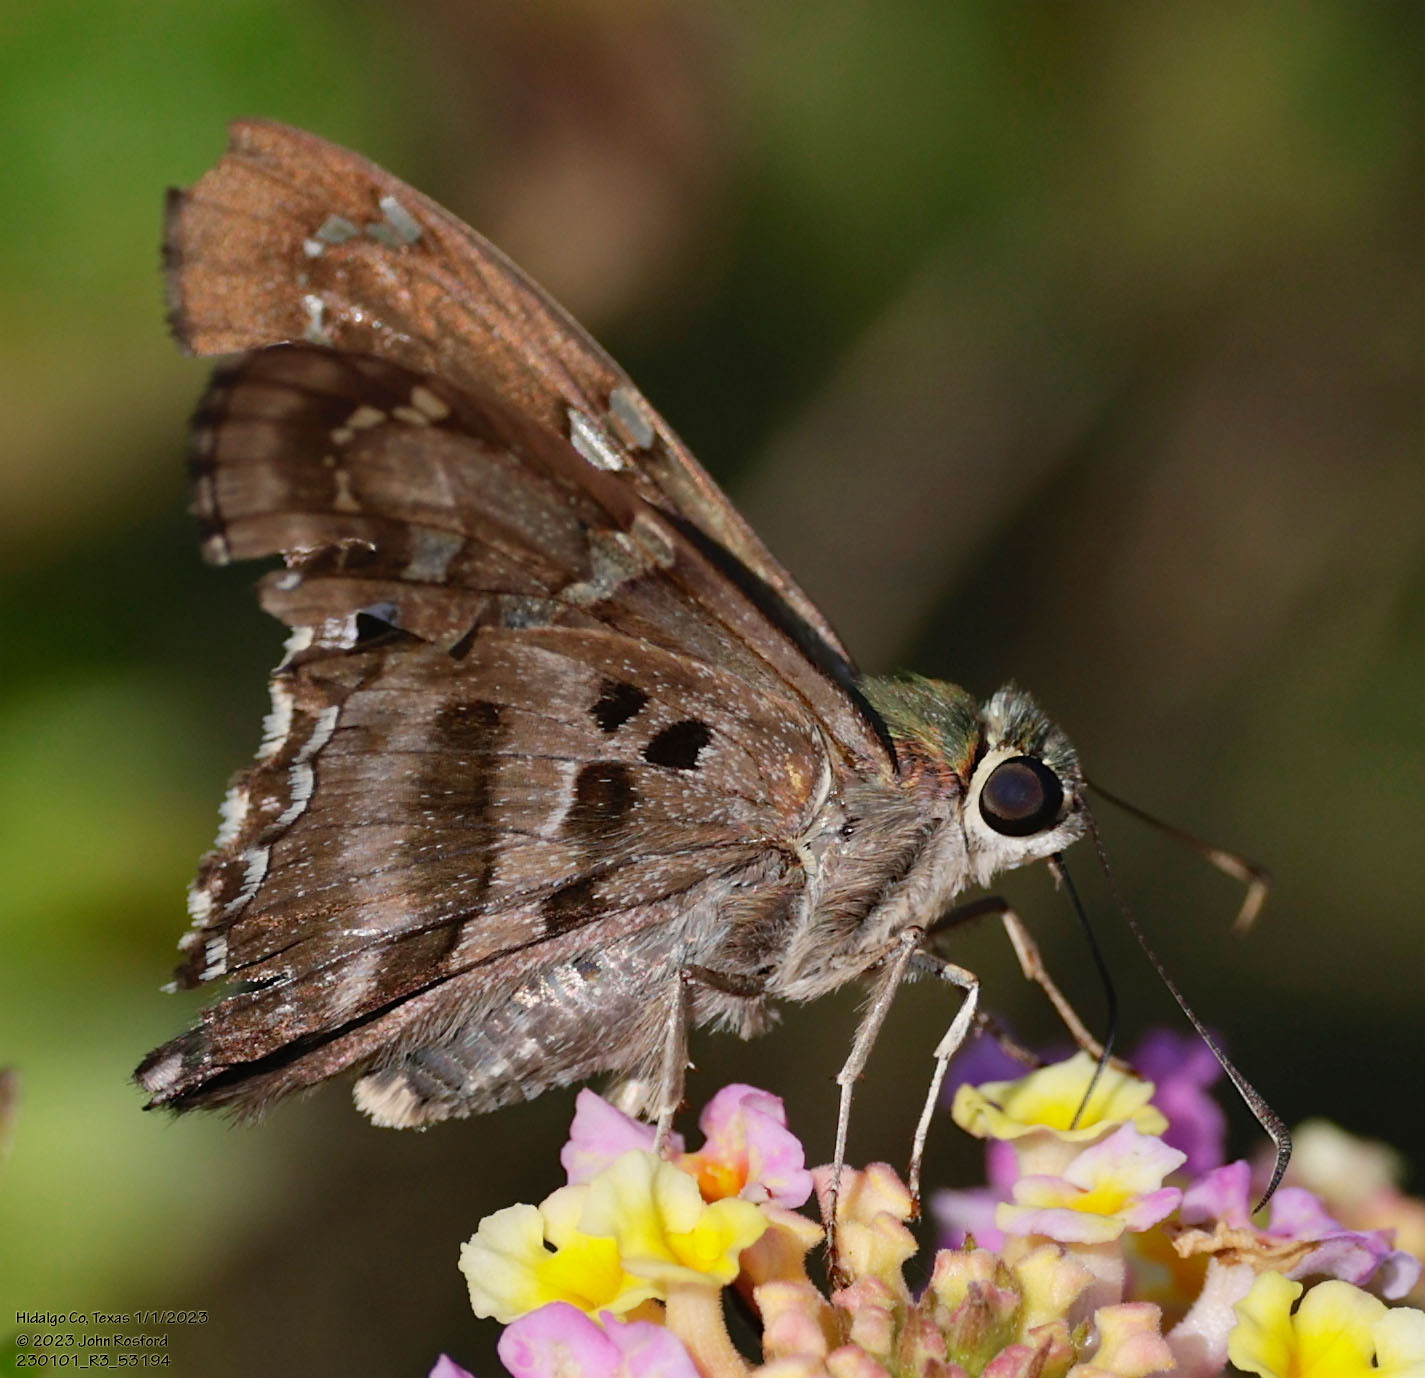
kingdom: Animalia
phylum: Arthropoda
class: Insecta
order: Lepidoptera
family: Hesperiidae
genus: Urbanus
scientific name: Urbanus proteus
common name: Long-tailed skipper
